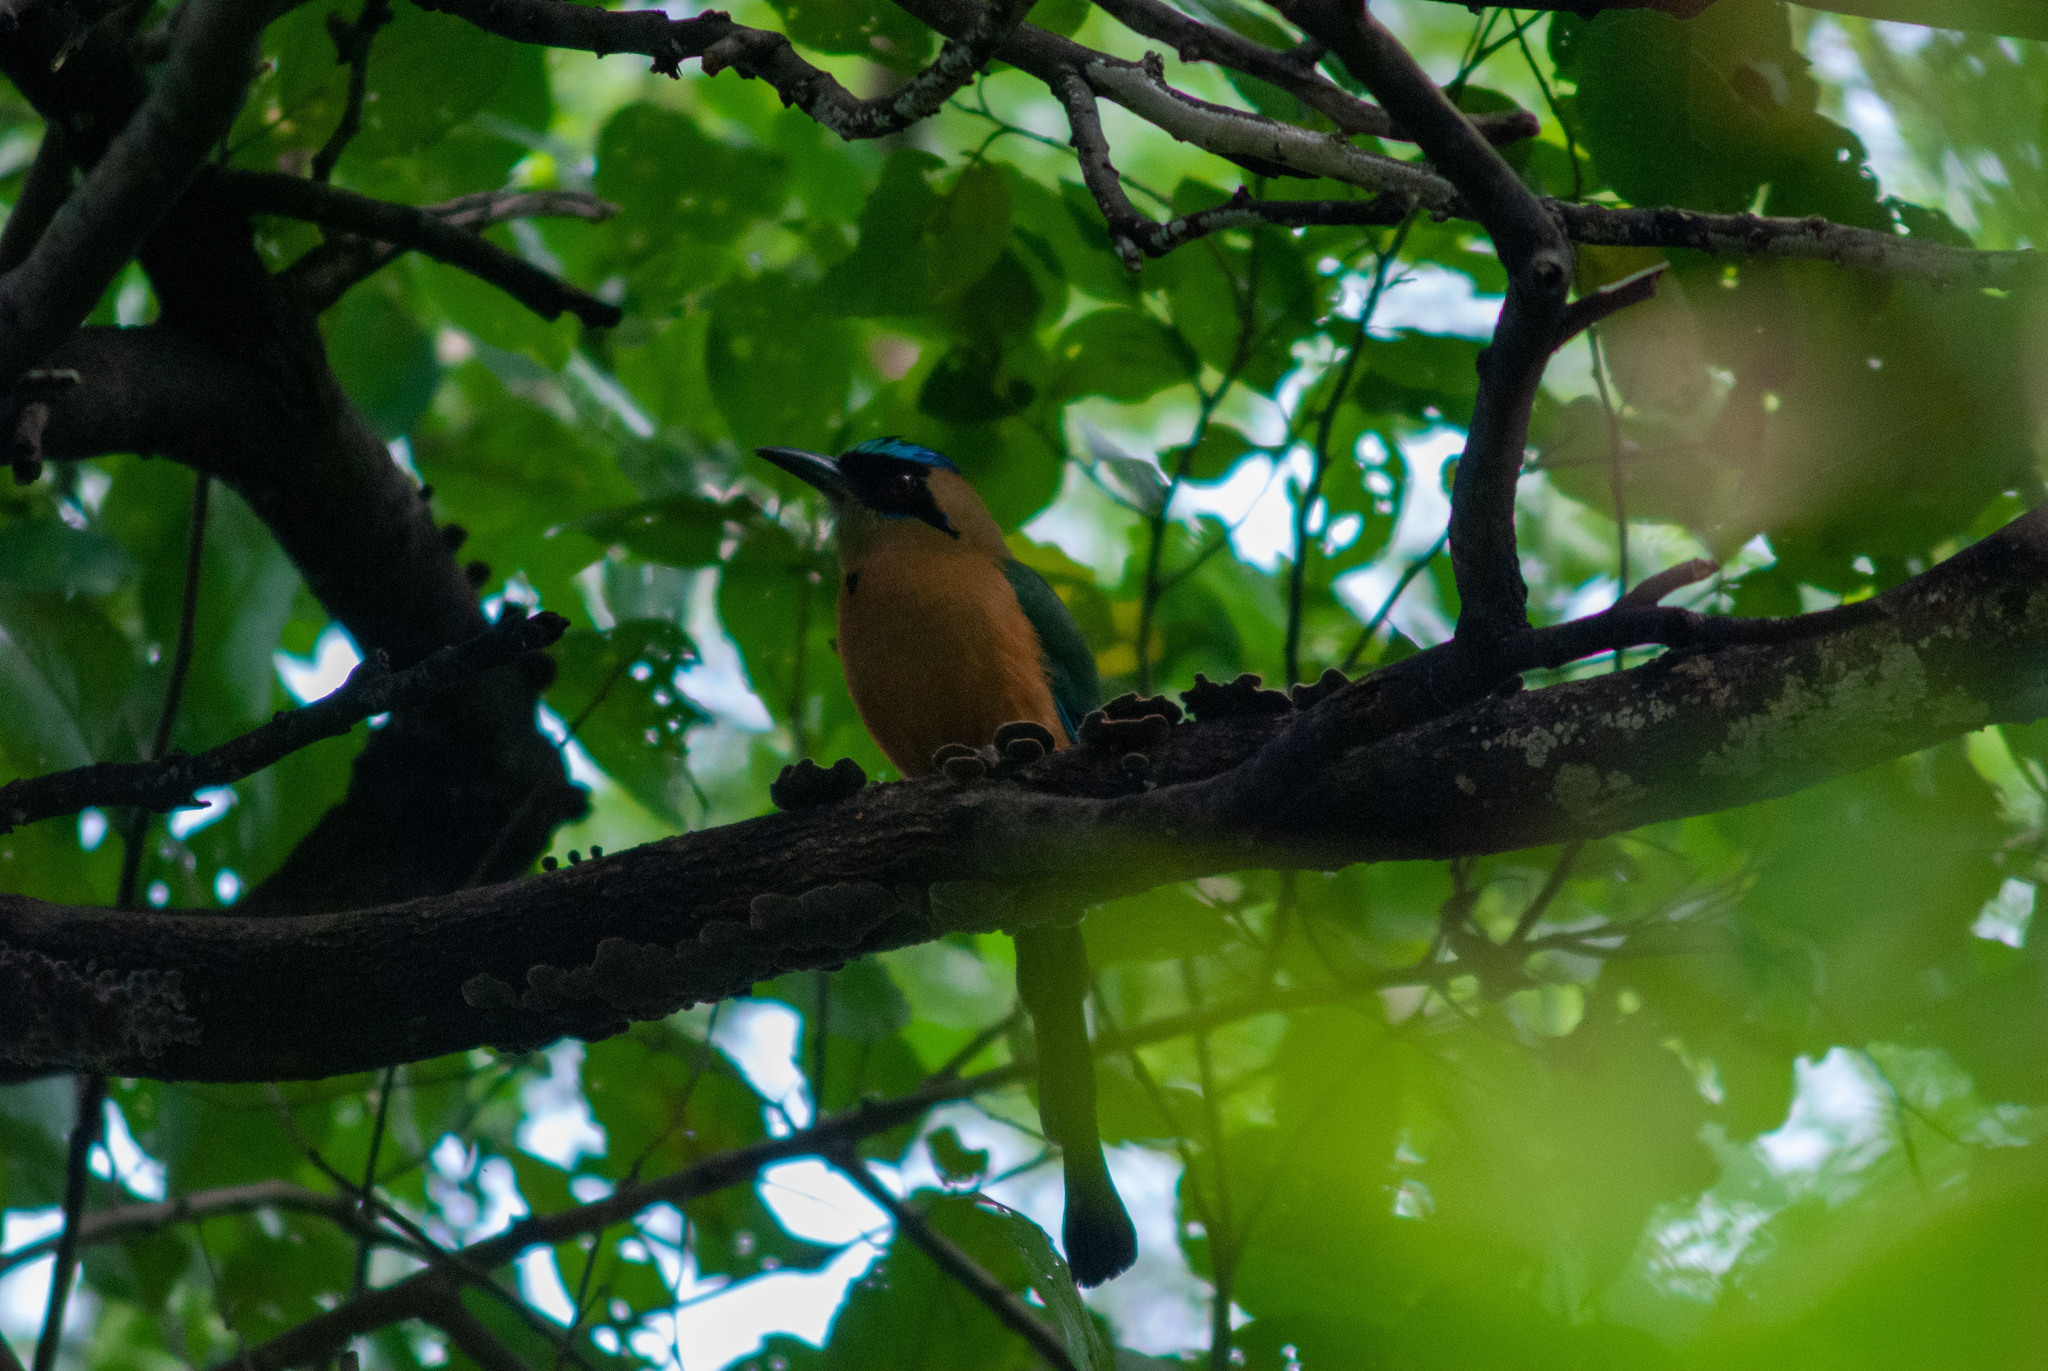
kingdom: Animalia
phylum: Chordata
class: Aves
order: Coraciiformes
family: Momotidae
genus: Momotus
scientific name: Momotus subrufescens
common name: Whooping motmot
